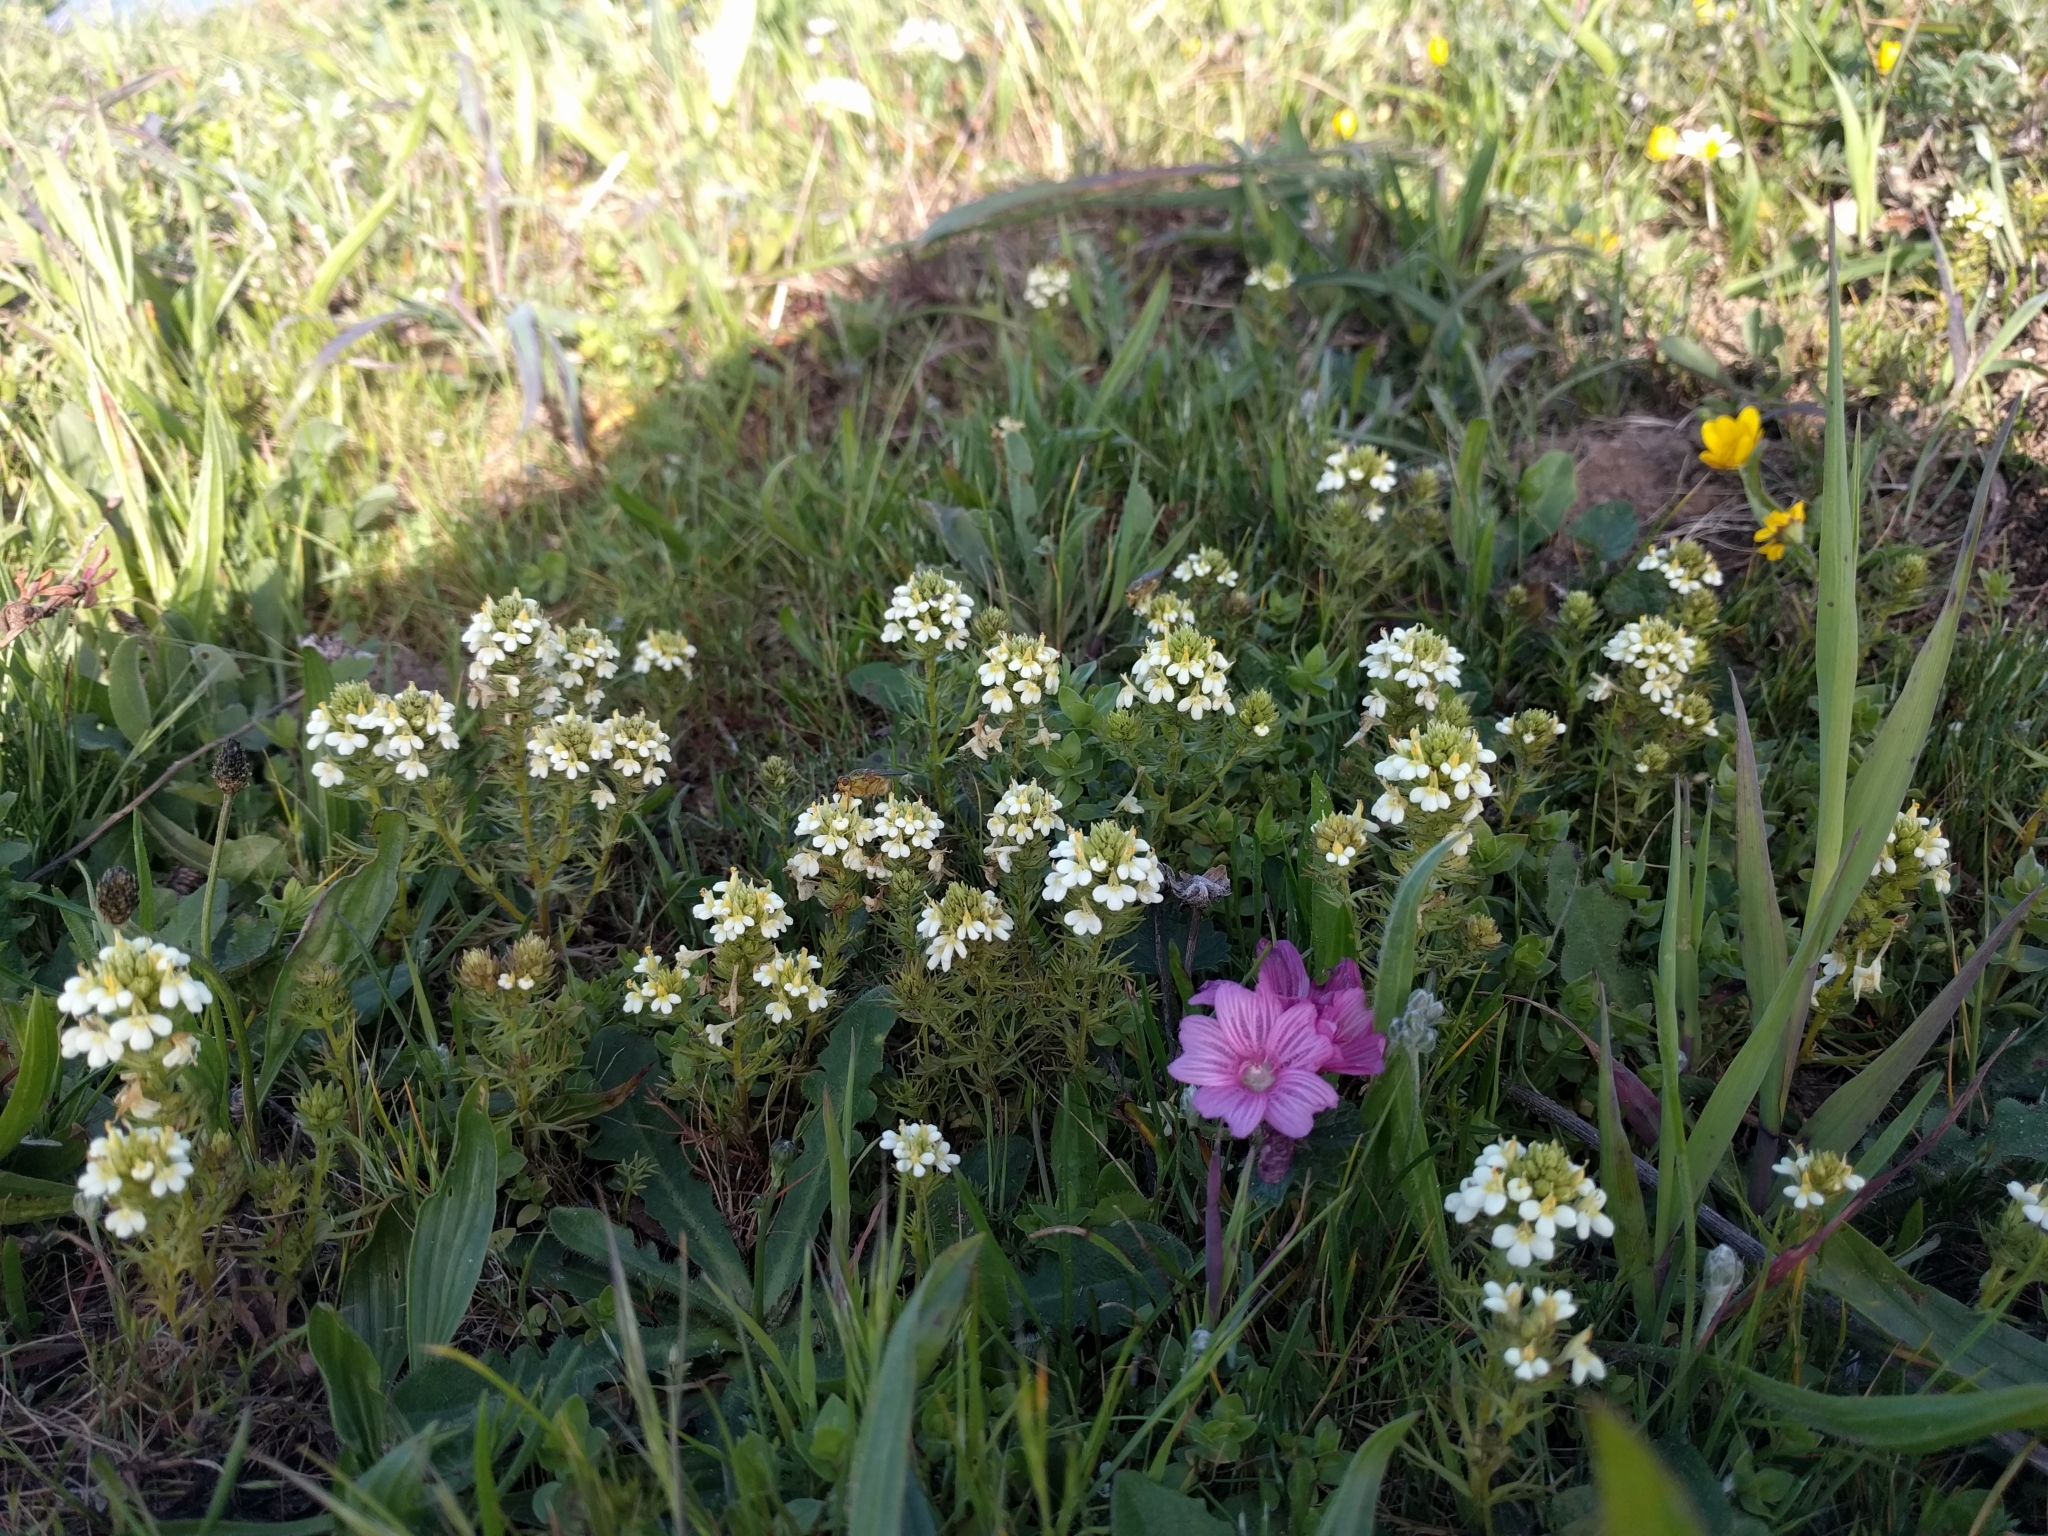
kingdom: Plantae
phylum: Tracheophyta
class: Magnoliopsida
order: Lamiales
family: Orobanchaceae
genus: Triphysaria
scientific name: Triphysaria floribunda
